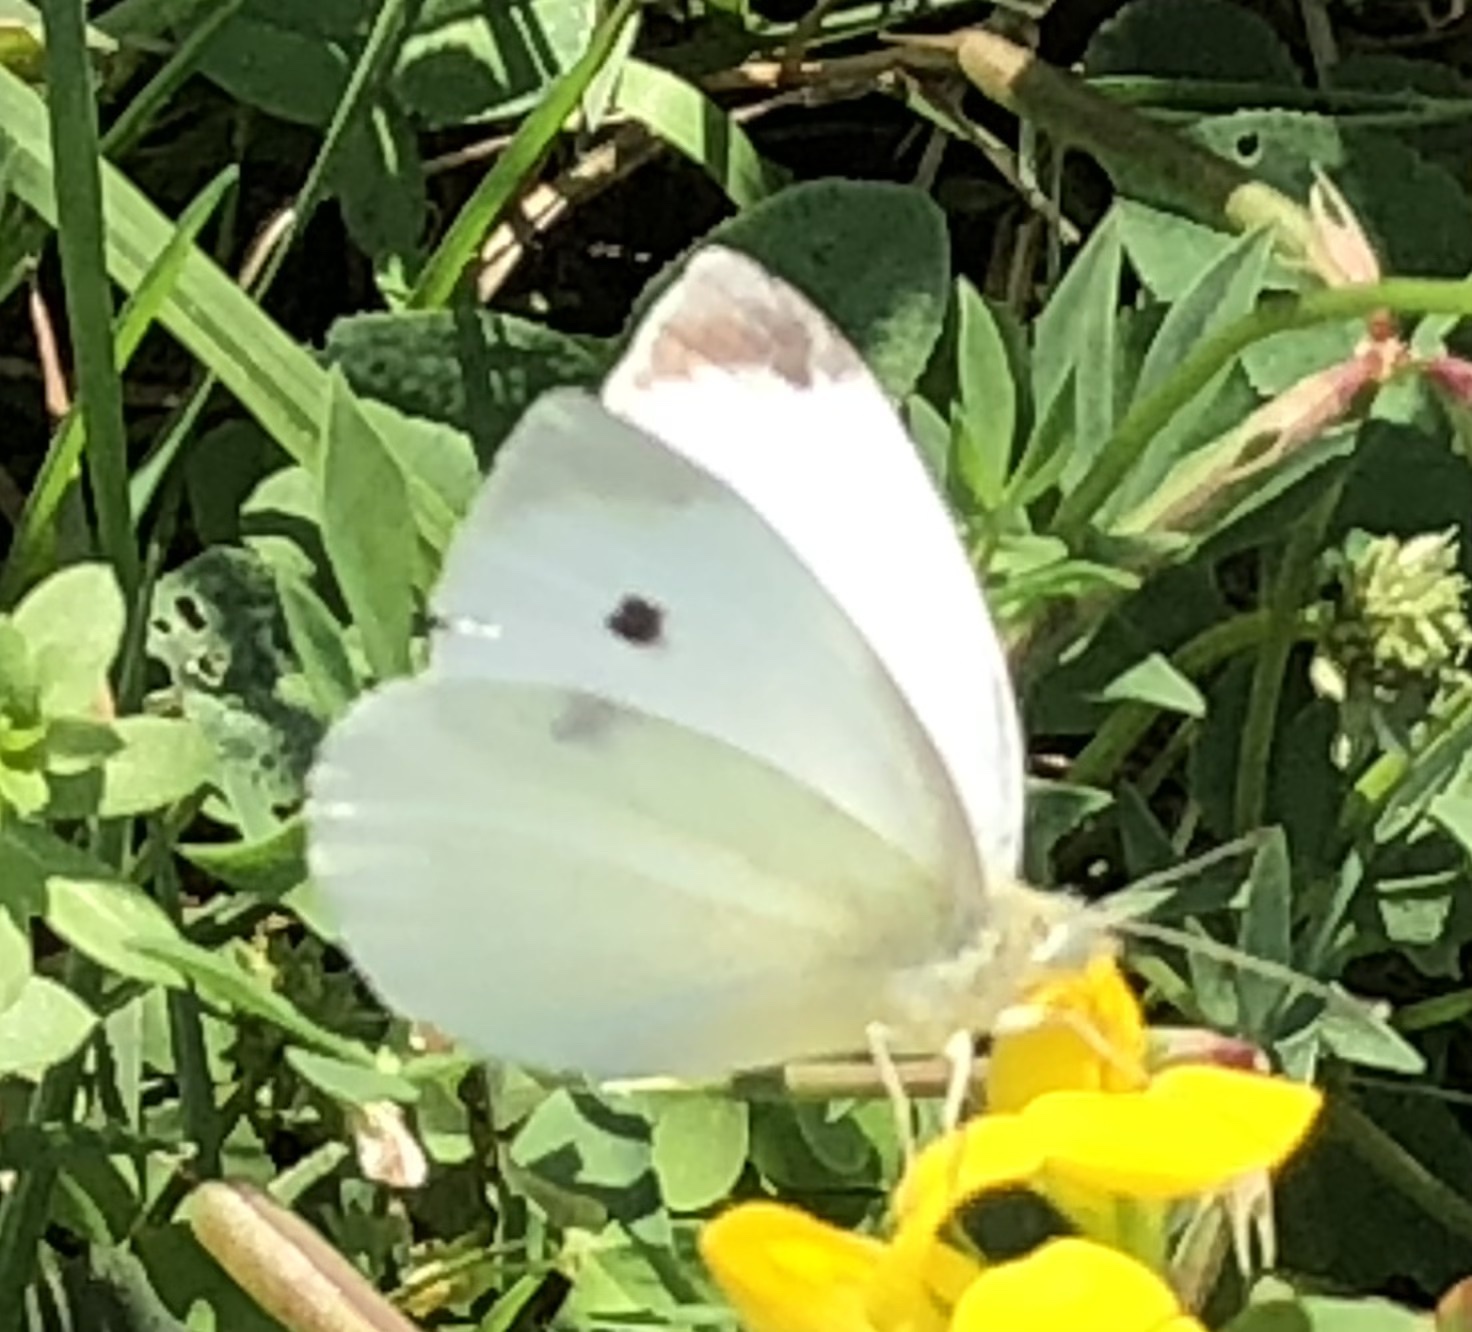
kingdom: Animalia
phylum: Arthropoda
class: Insecta
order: Lepidoptera
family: Pieridae
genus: Pieris
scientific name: Pieris rapae
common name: Small white
